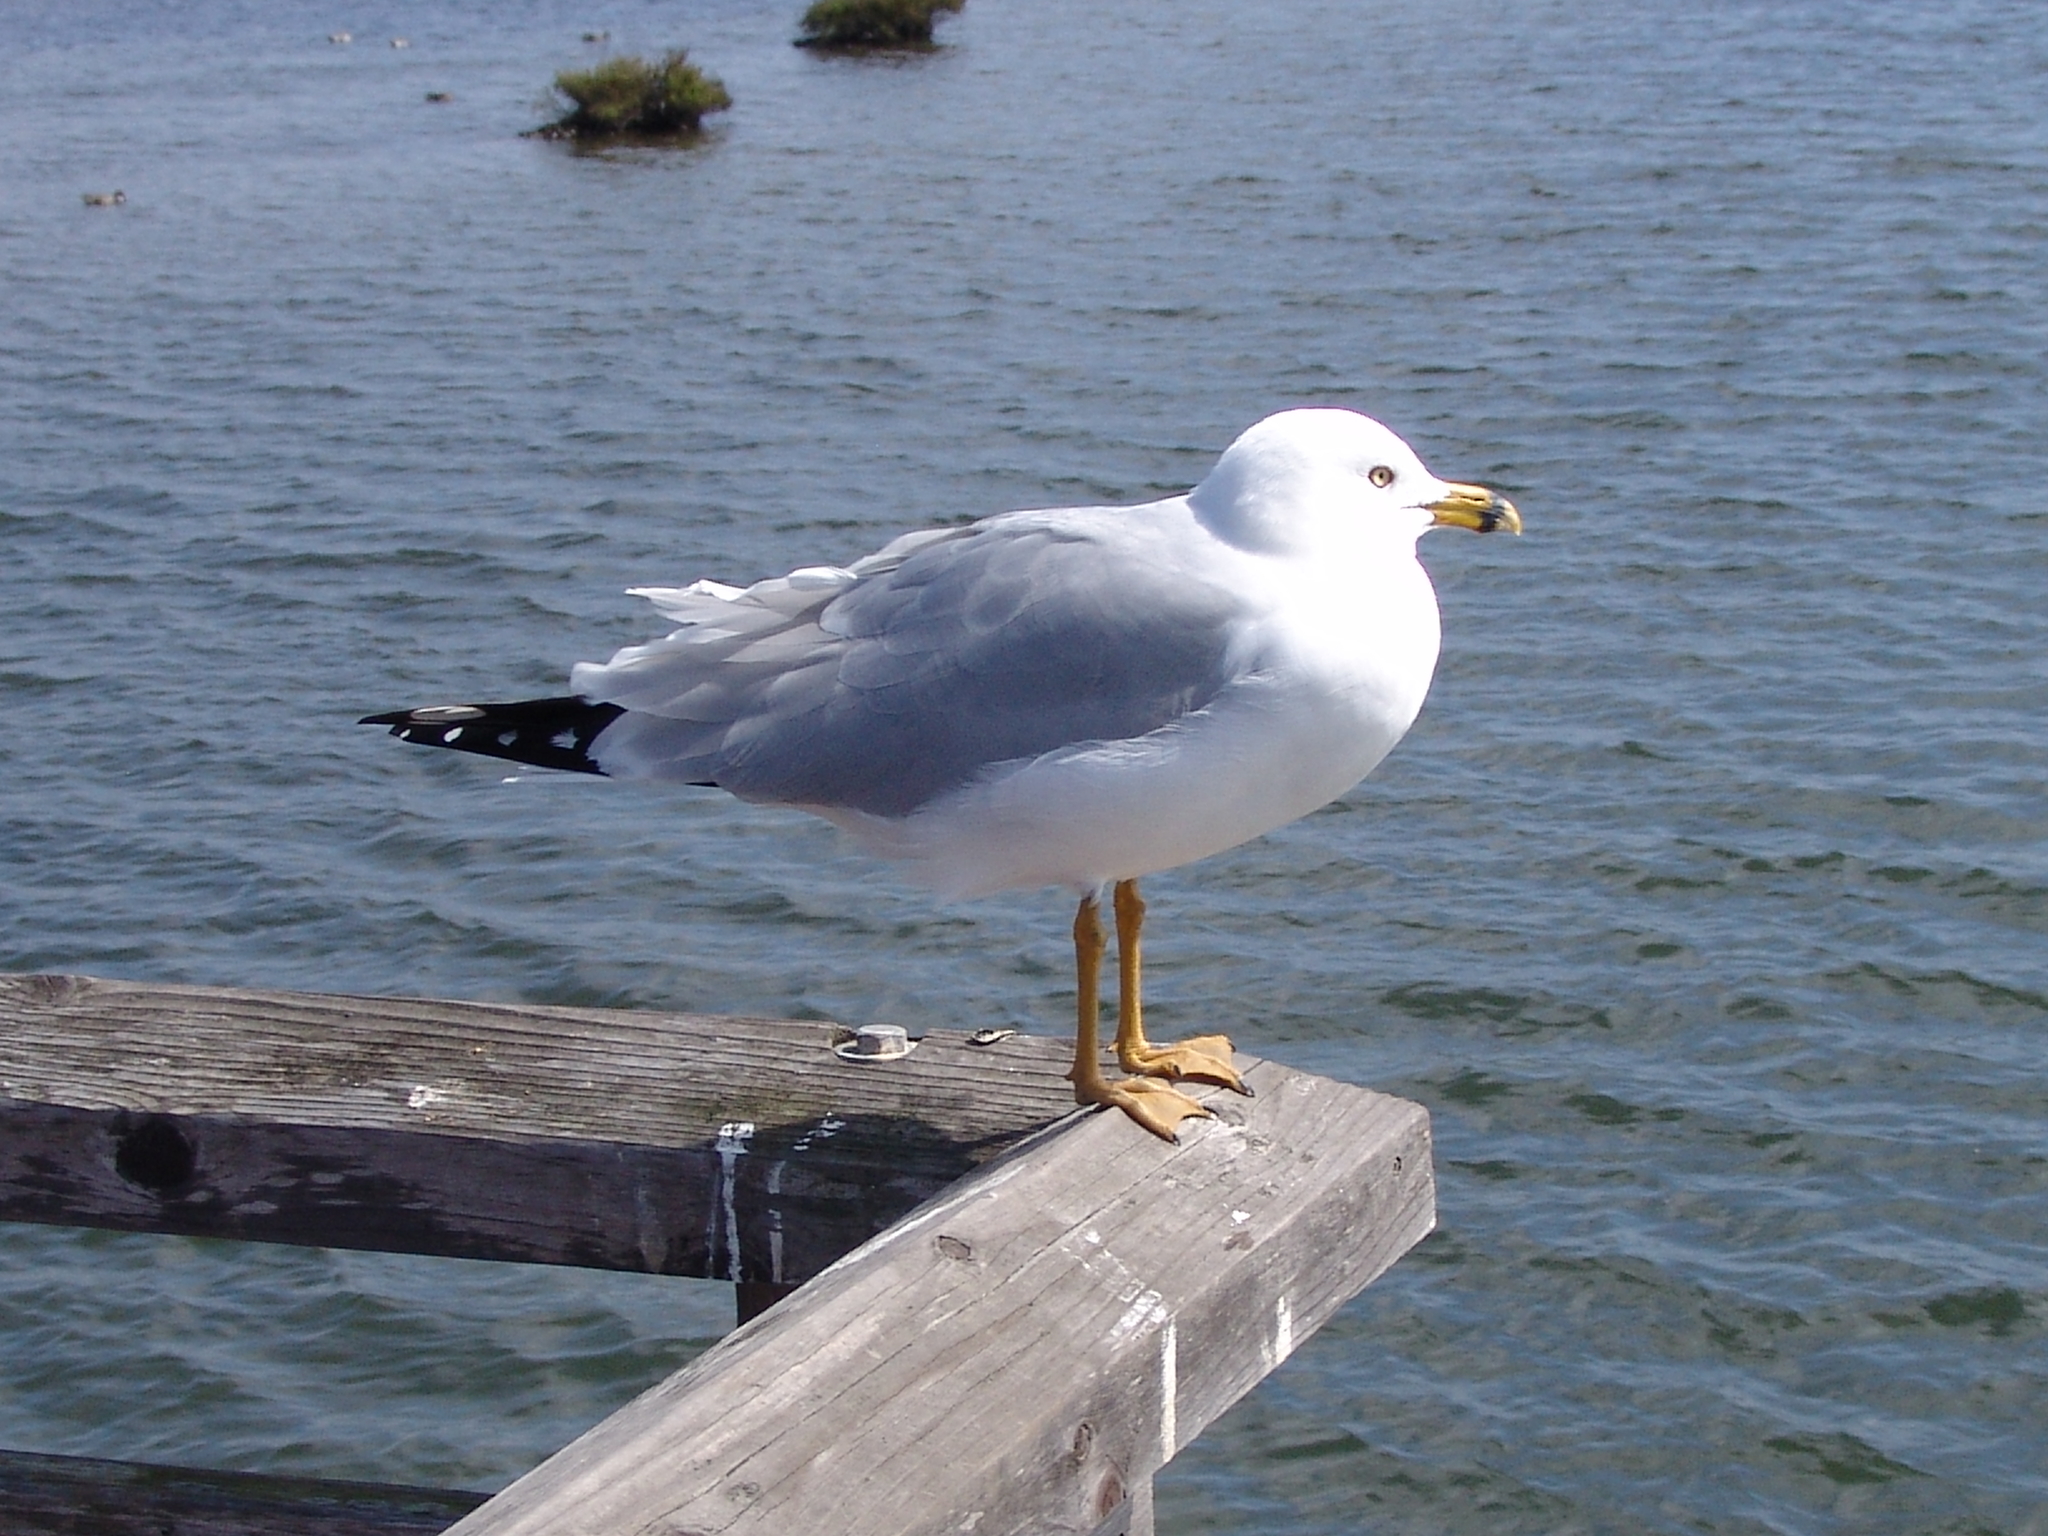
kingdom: Animalia
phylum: Chordata
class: Aves
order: Charadriiformes
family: Laridae
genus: Larus
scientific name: Larus delawarensis
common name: Ring-billed gull
